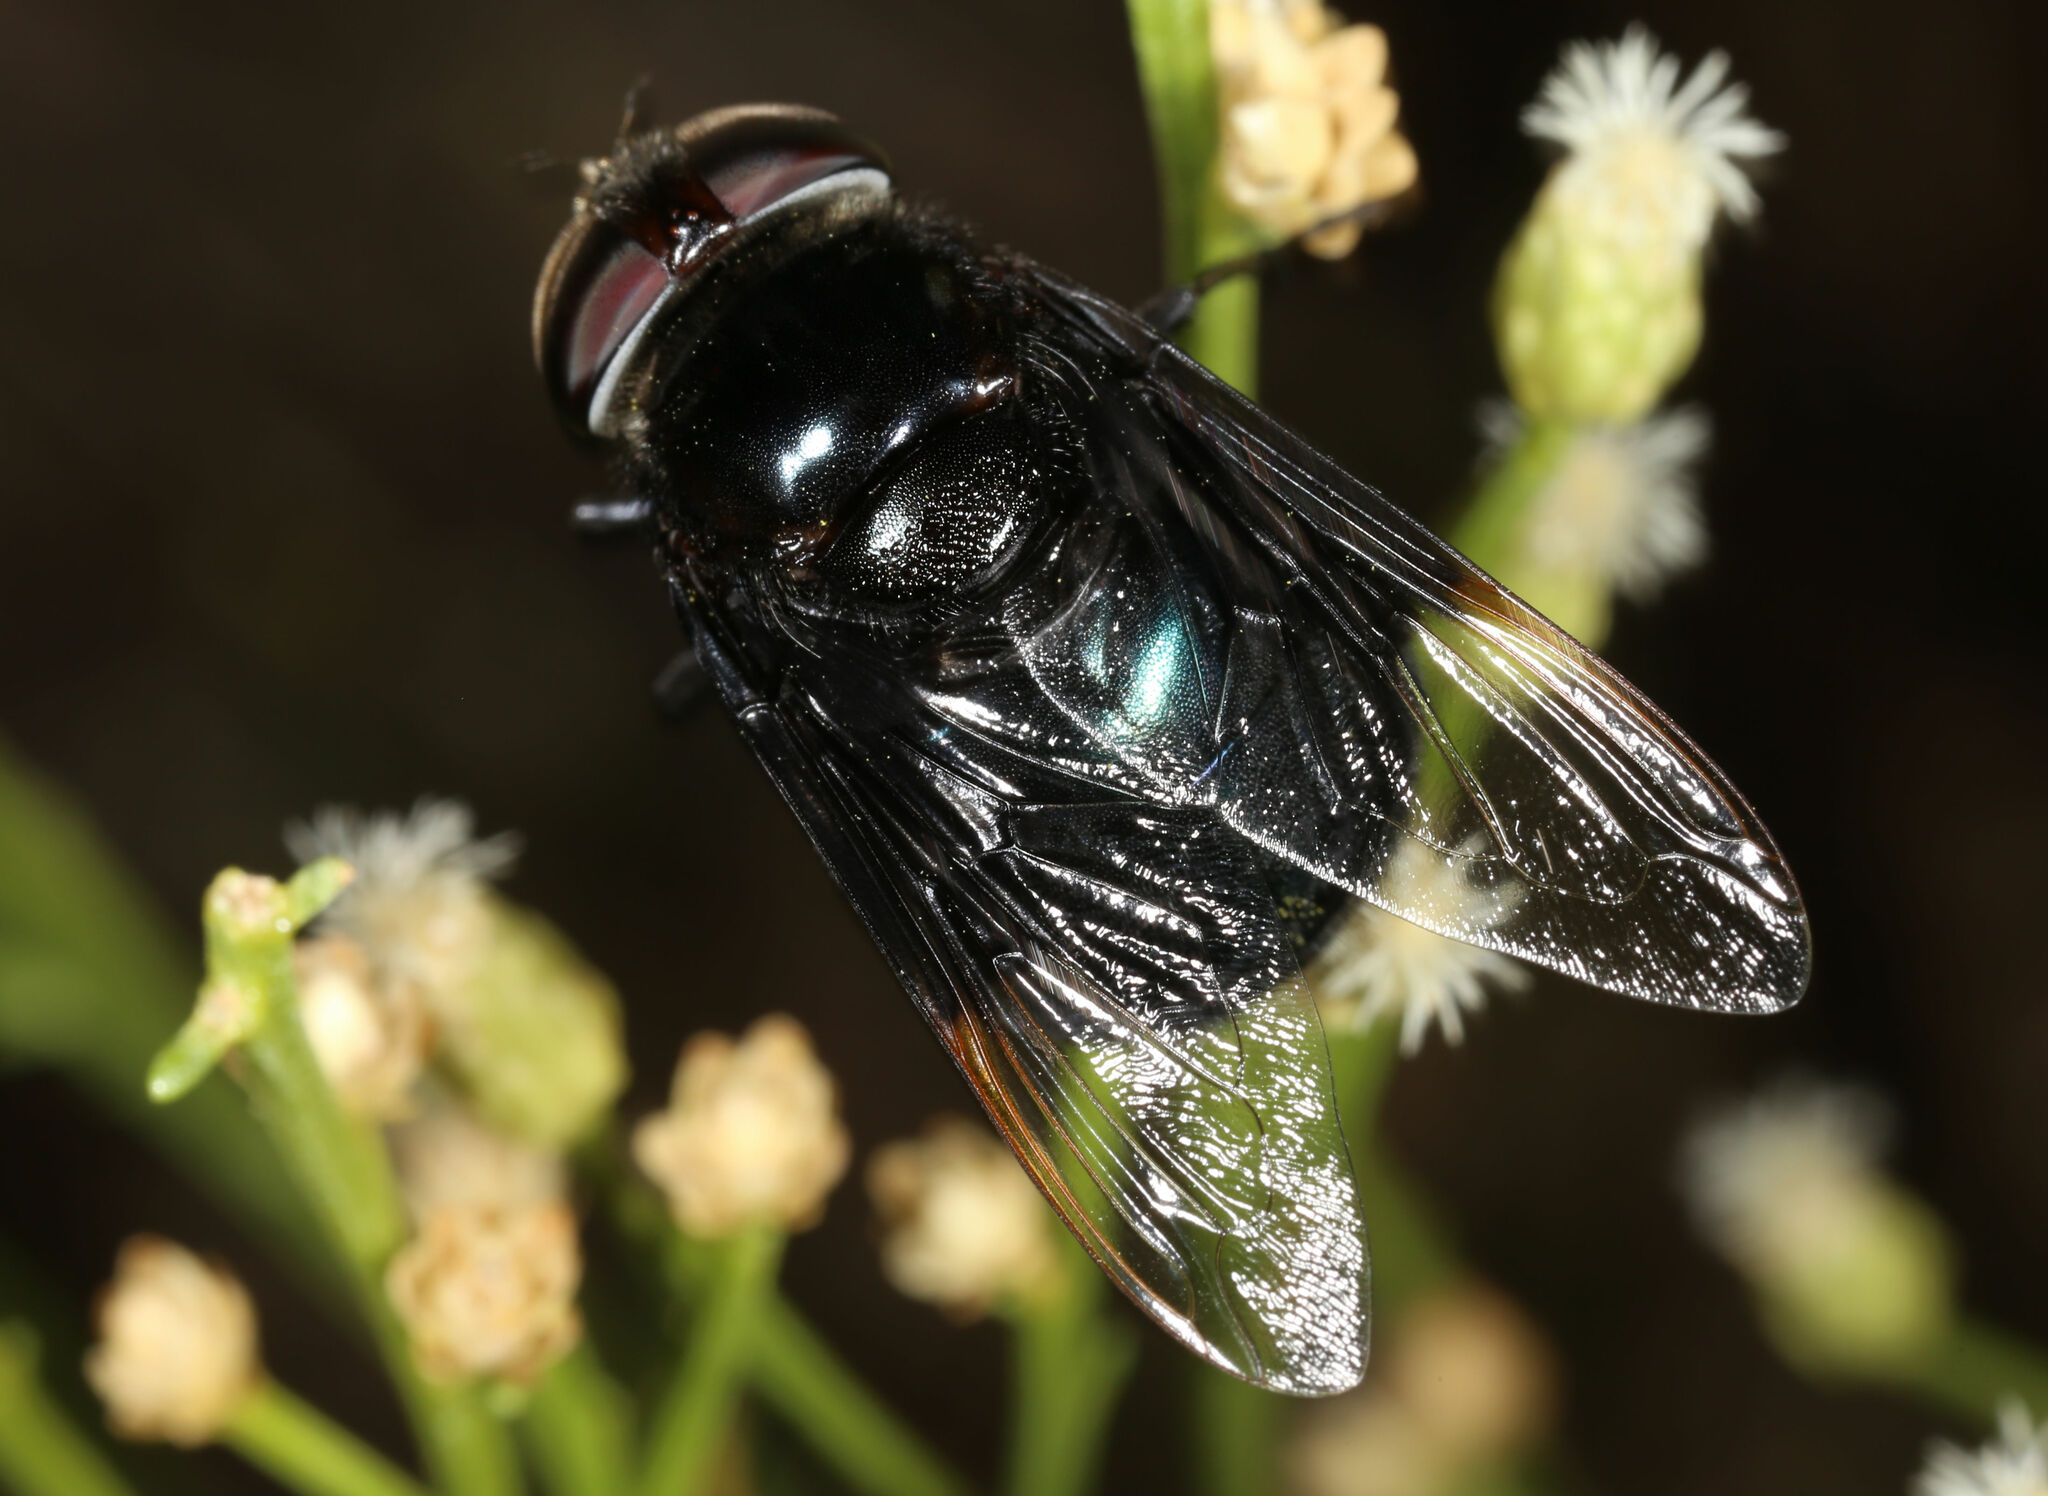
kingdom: Animalia
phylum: Arthropoda
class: Insecta
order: Diptera
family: Syrphidae
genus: Copestylum
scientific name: Copestylum
